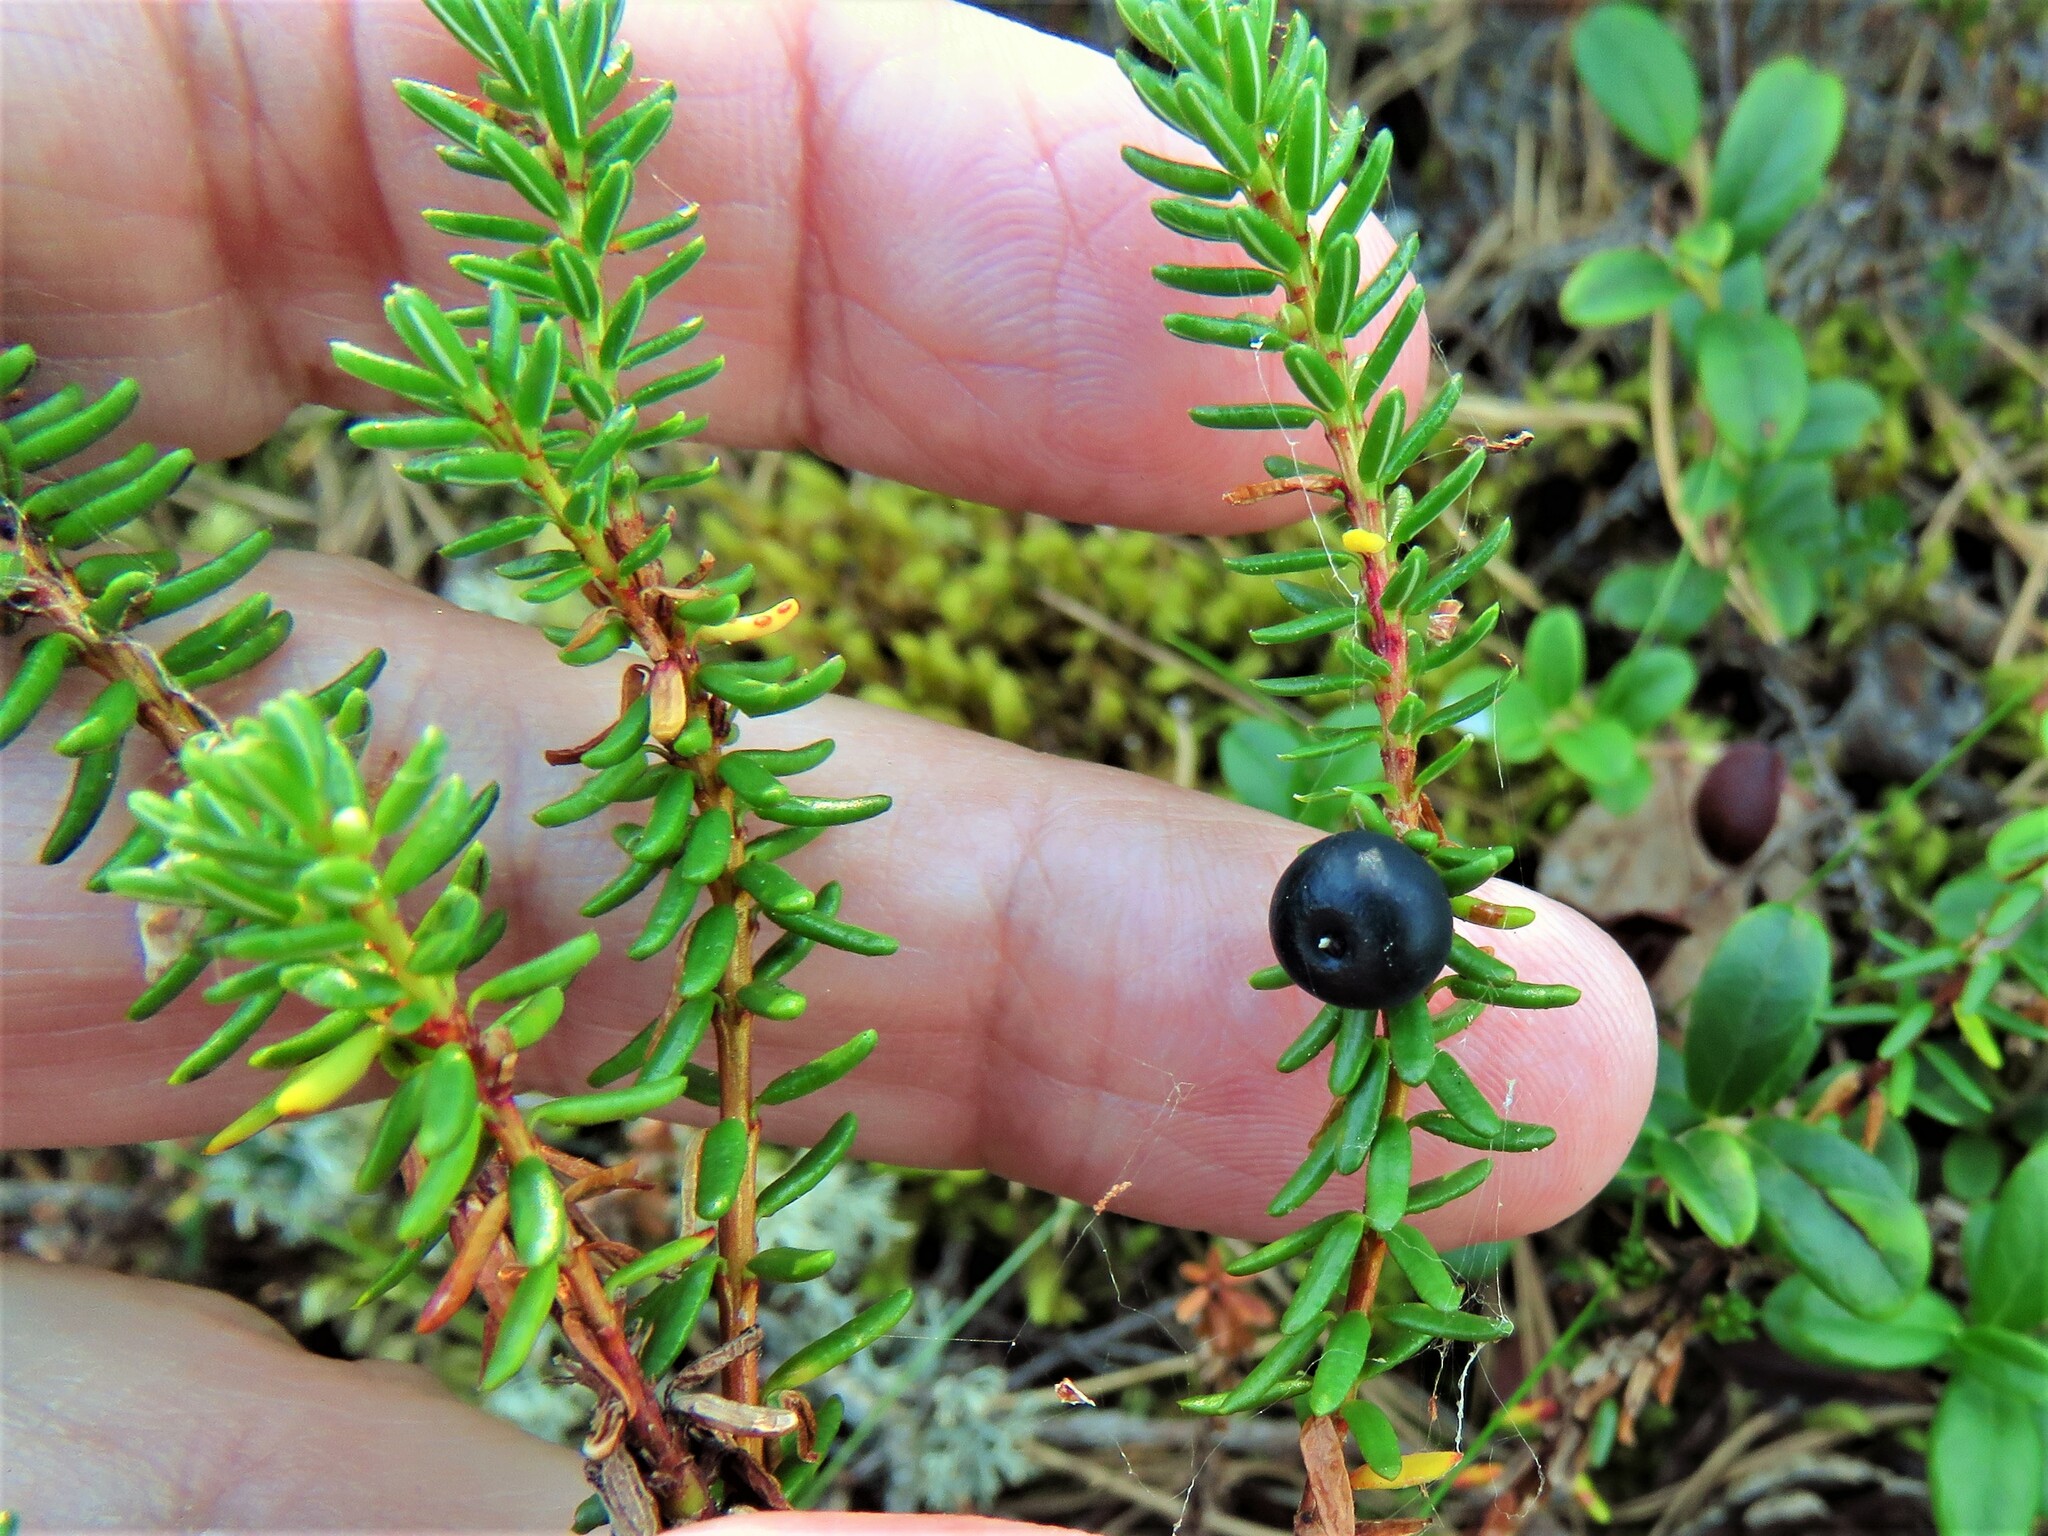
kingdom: Plantae
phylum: Tracheophyta
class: Magnoliopsida
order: Ericales
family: Ericaceae
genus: Empetrum
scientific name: Empetrum nigrum
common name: Black crowberry
